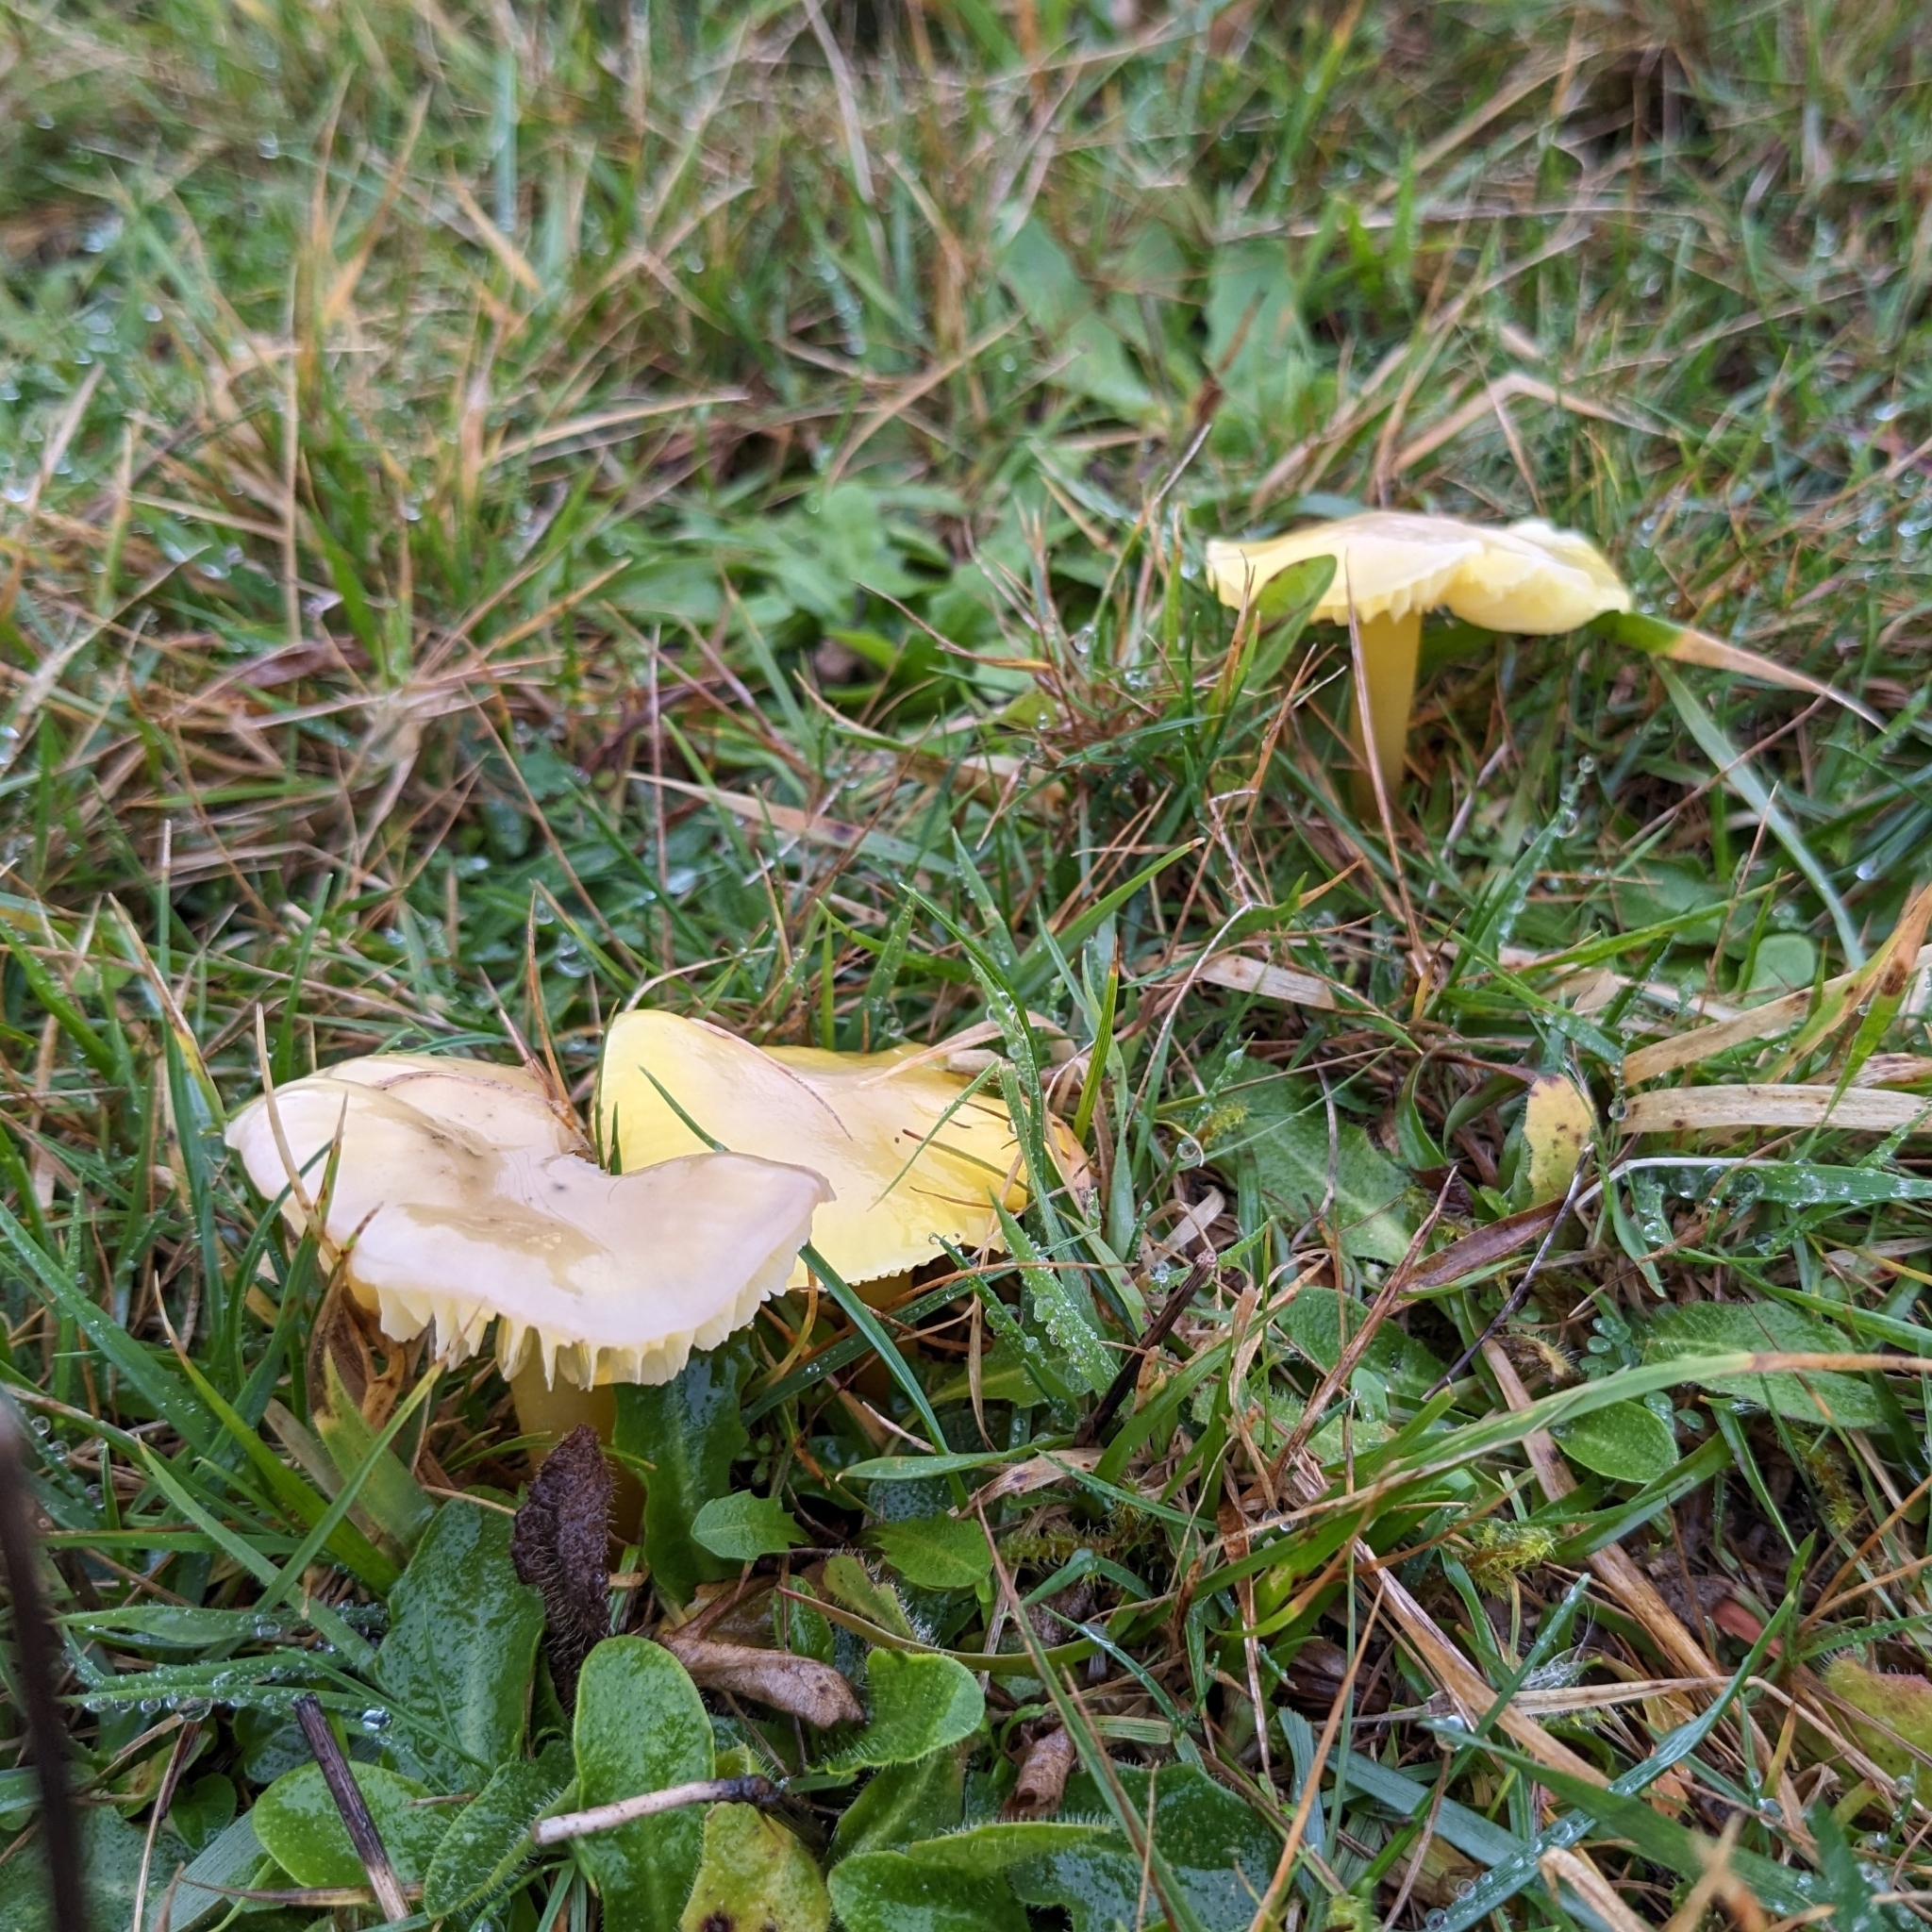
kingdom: Fungi
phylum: Basidiomycota
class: Agaricomycetes
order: Agaricales
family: Hygrophoraceae
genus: Hygrocybe
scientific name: Hygrocybe chlorophana
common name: Golden waxcap
